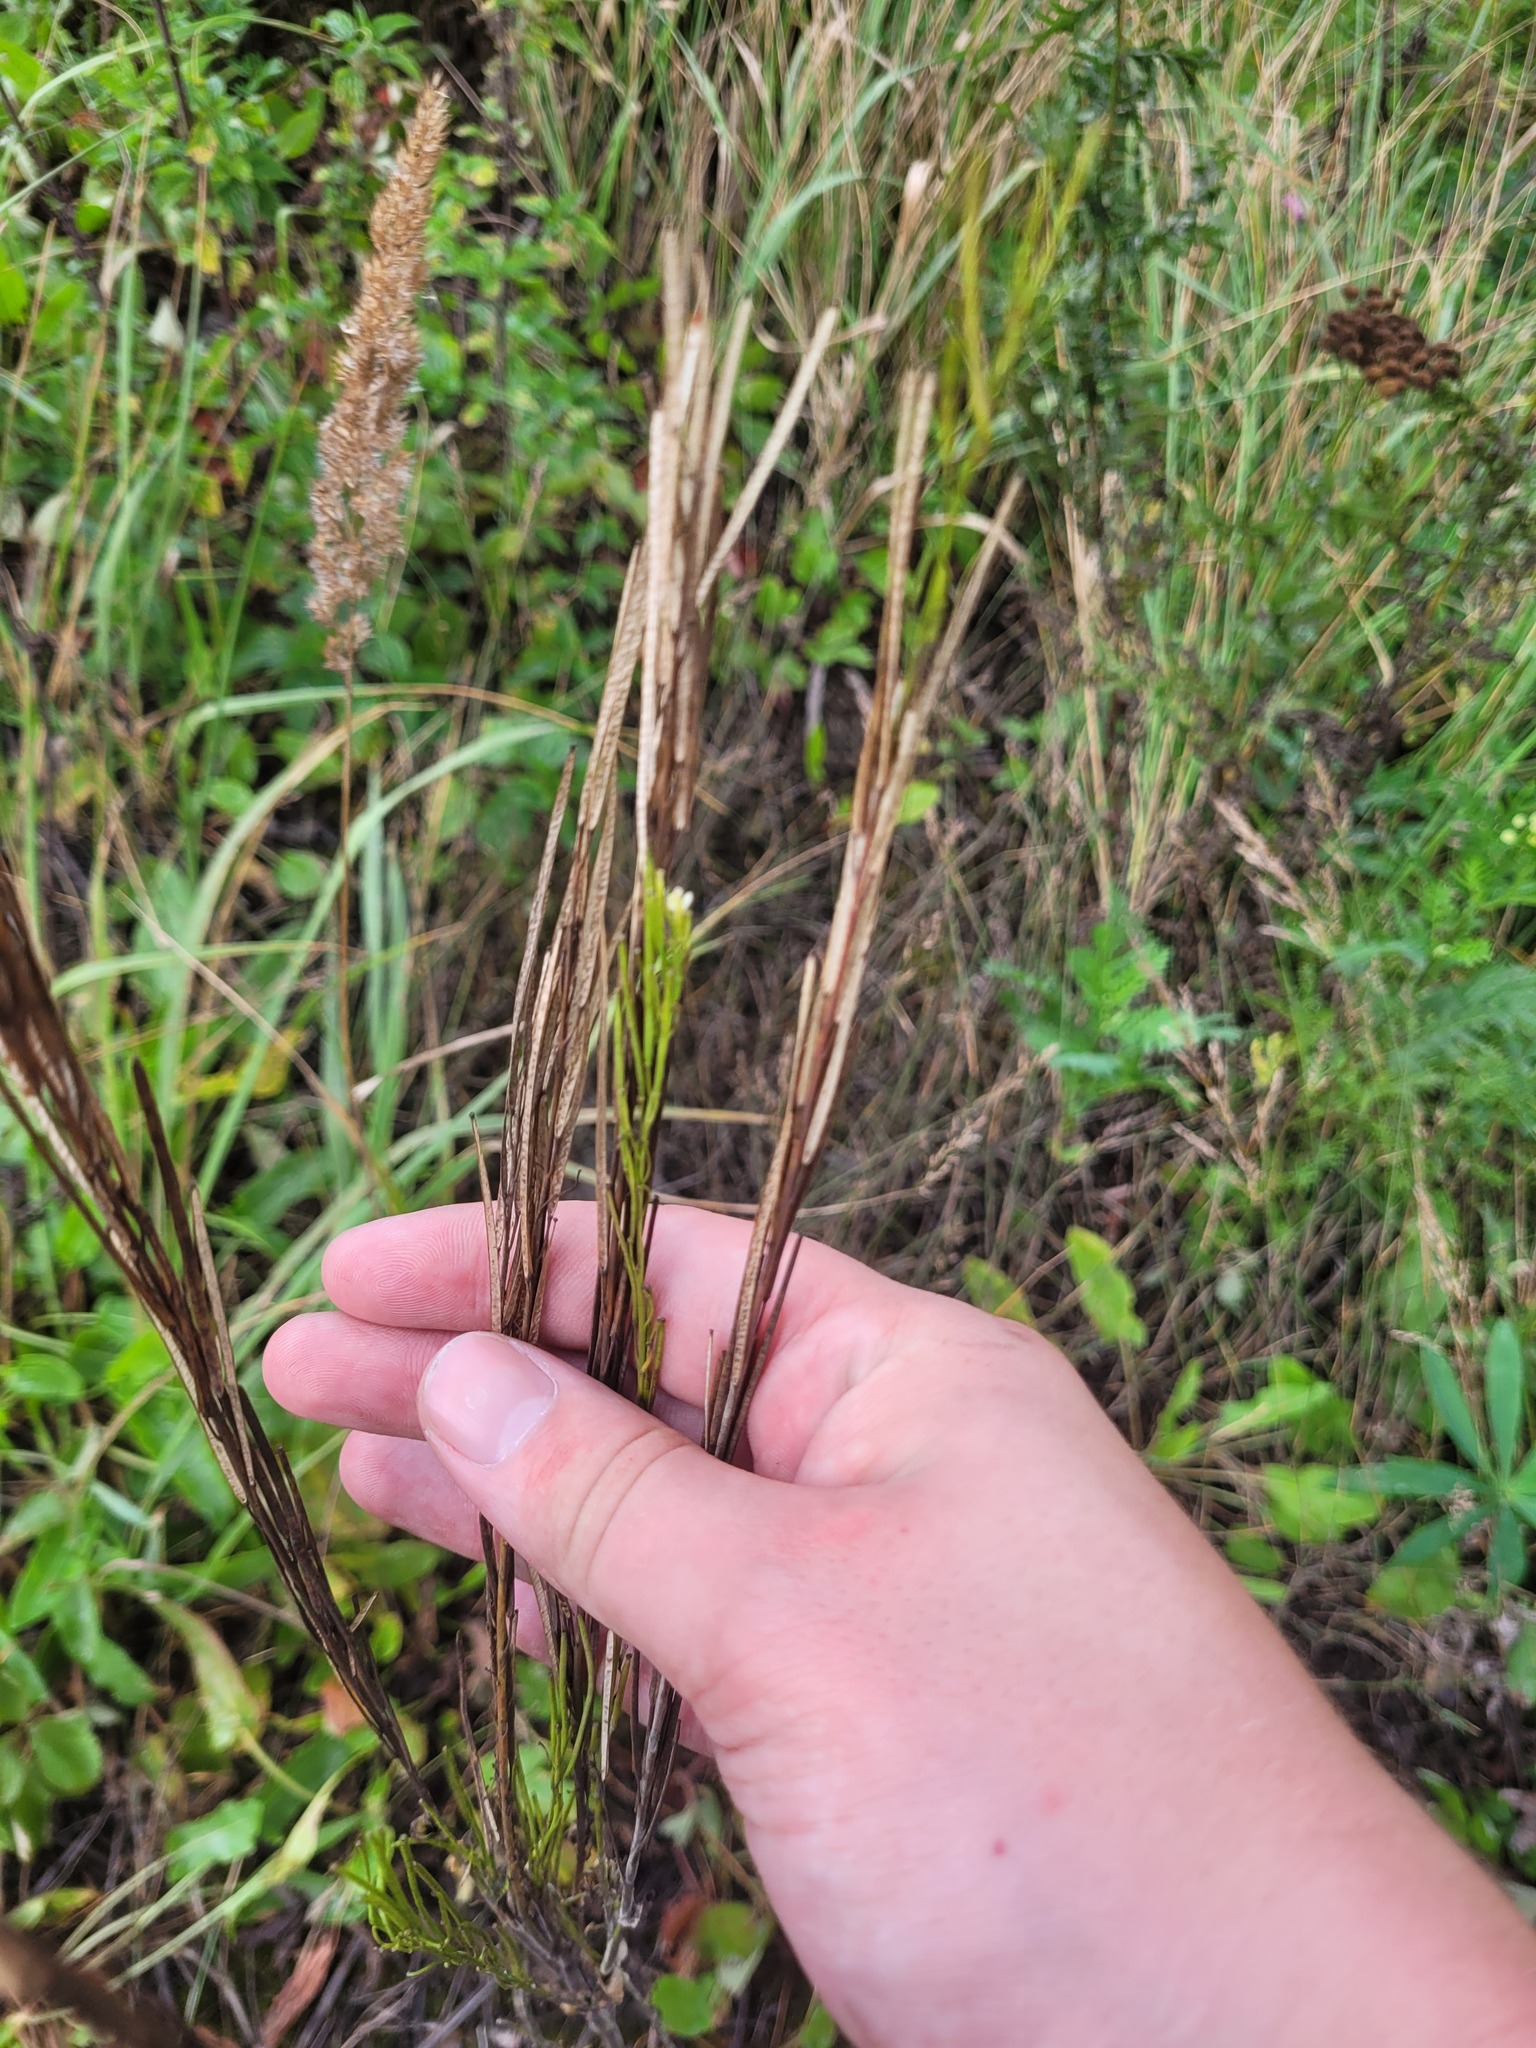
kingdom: Plantae
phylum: Tracheophyta
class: Magnoliopsida
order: Brassicales
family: Brassicaceae
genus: Turritis
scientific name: Turritis glabra
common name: Tower rockcress
